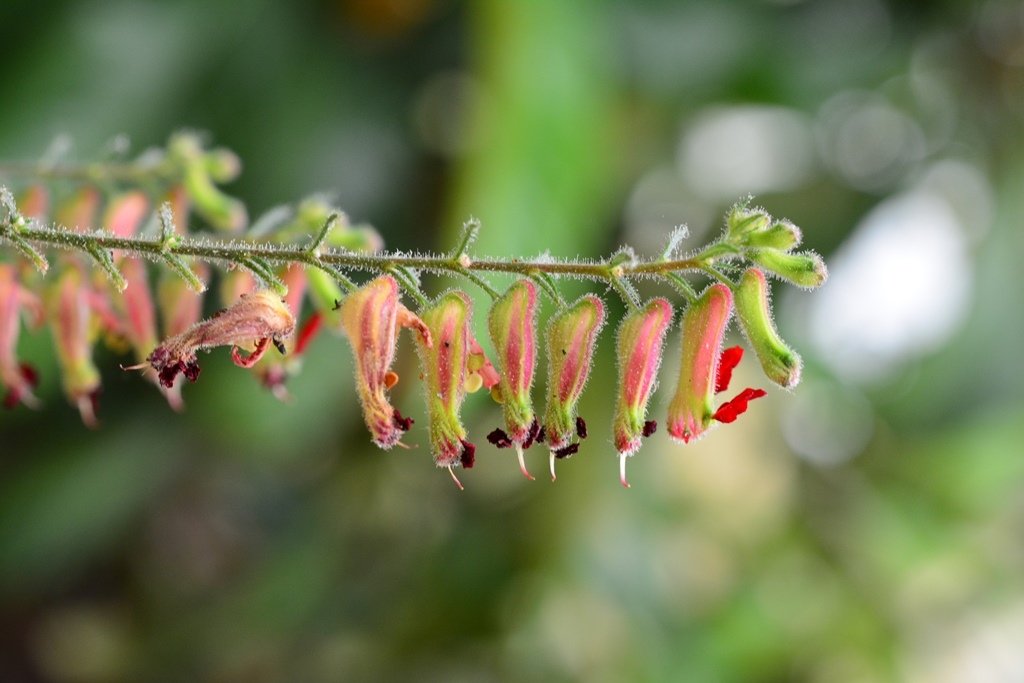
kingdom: Plantae
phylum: Tracheophyta
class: Magnoliopsida
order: Myrtales
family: Lythraceae
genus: Cuphea
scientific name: Cuphea hookeriana
